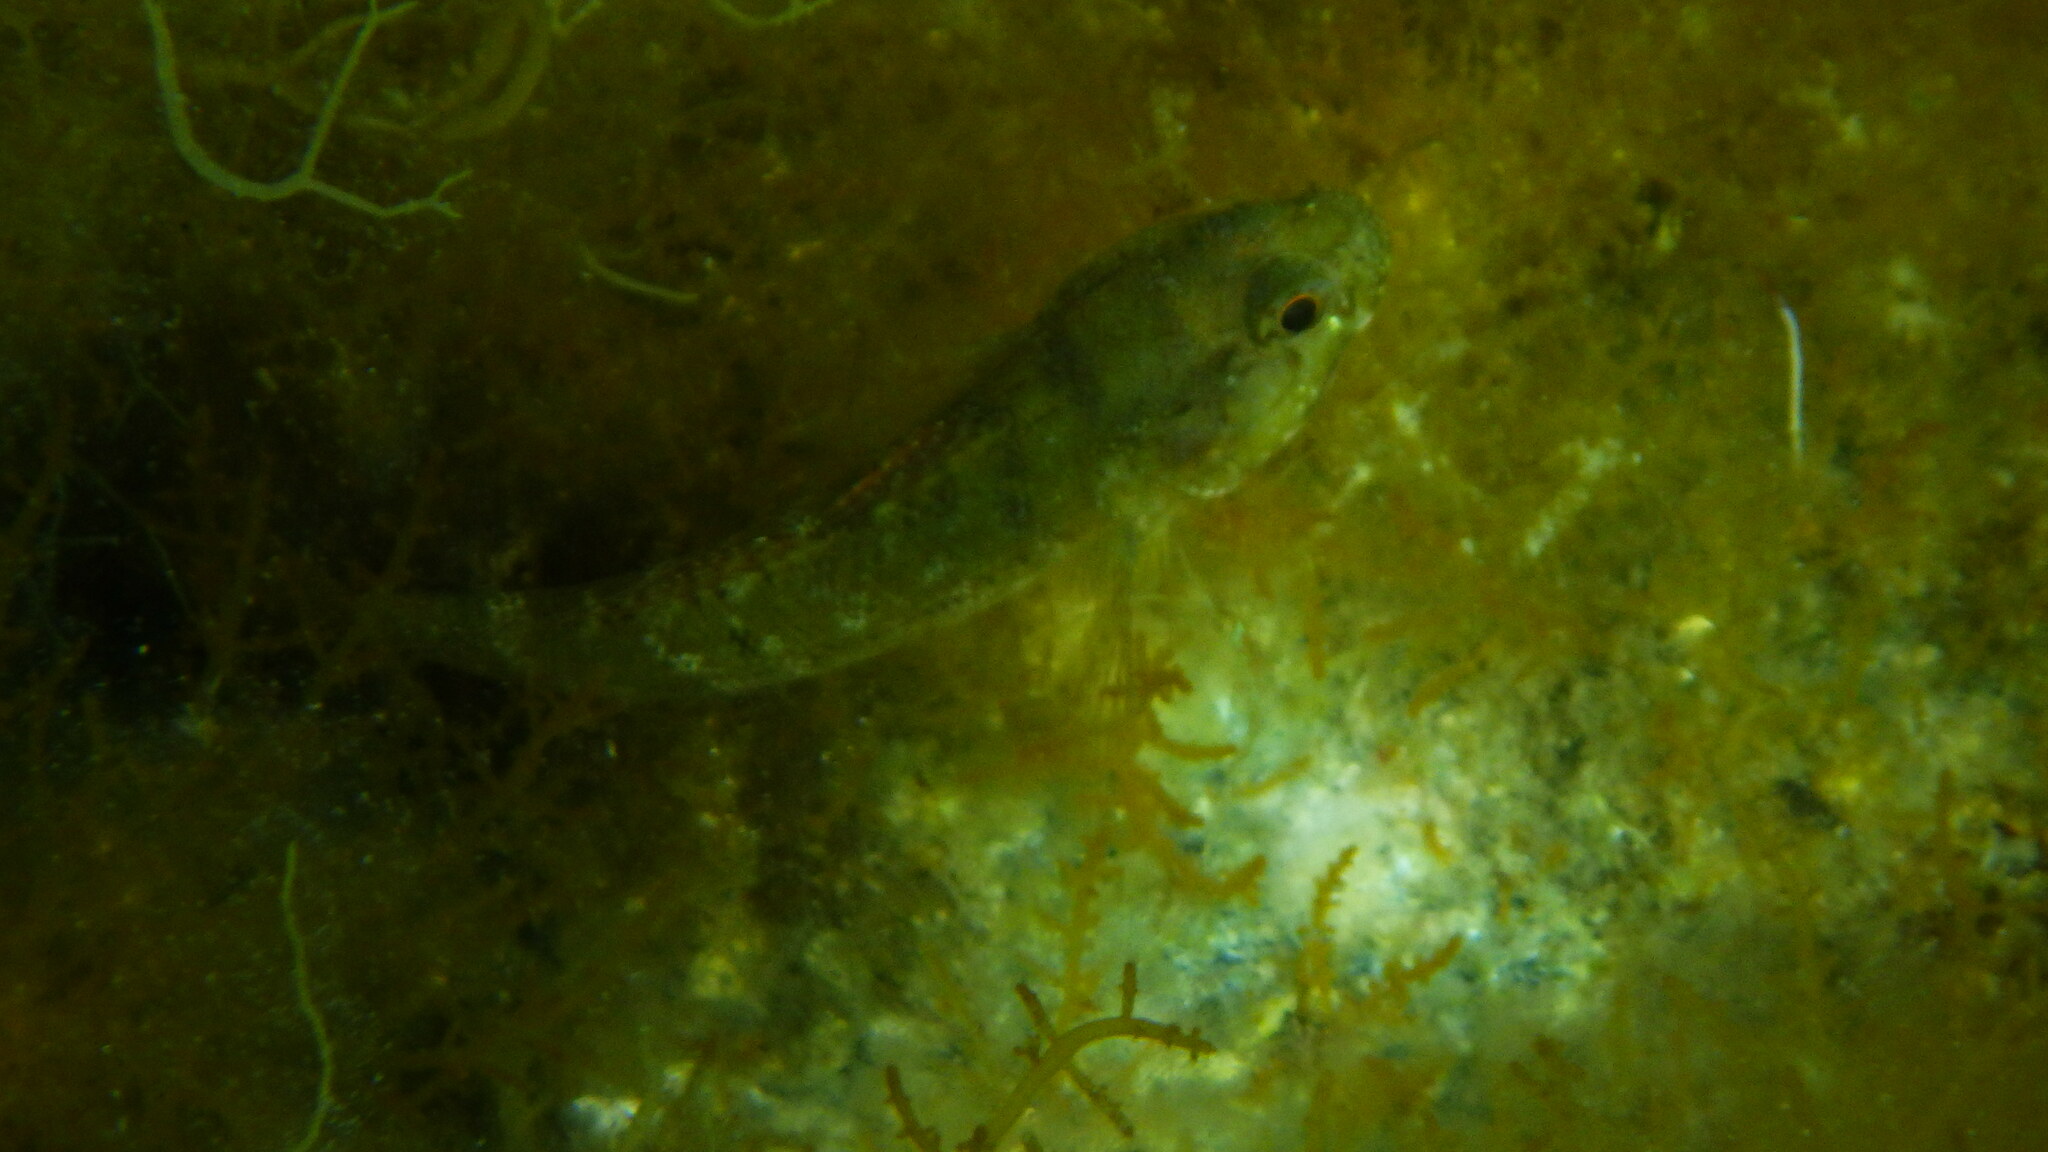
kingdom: Animalia
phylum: Chordata
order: Perciformes
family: Gobiidae
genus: Gobius
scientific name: Gobius paganellus
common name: Rock goby
